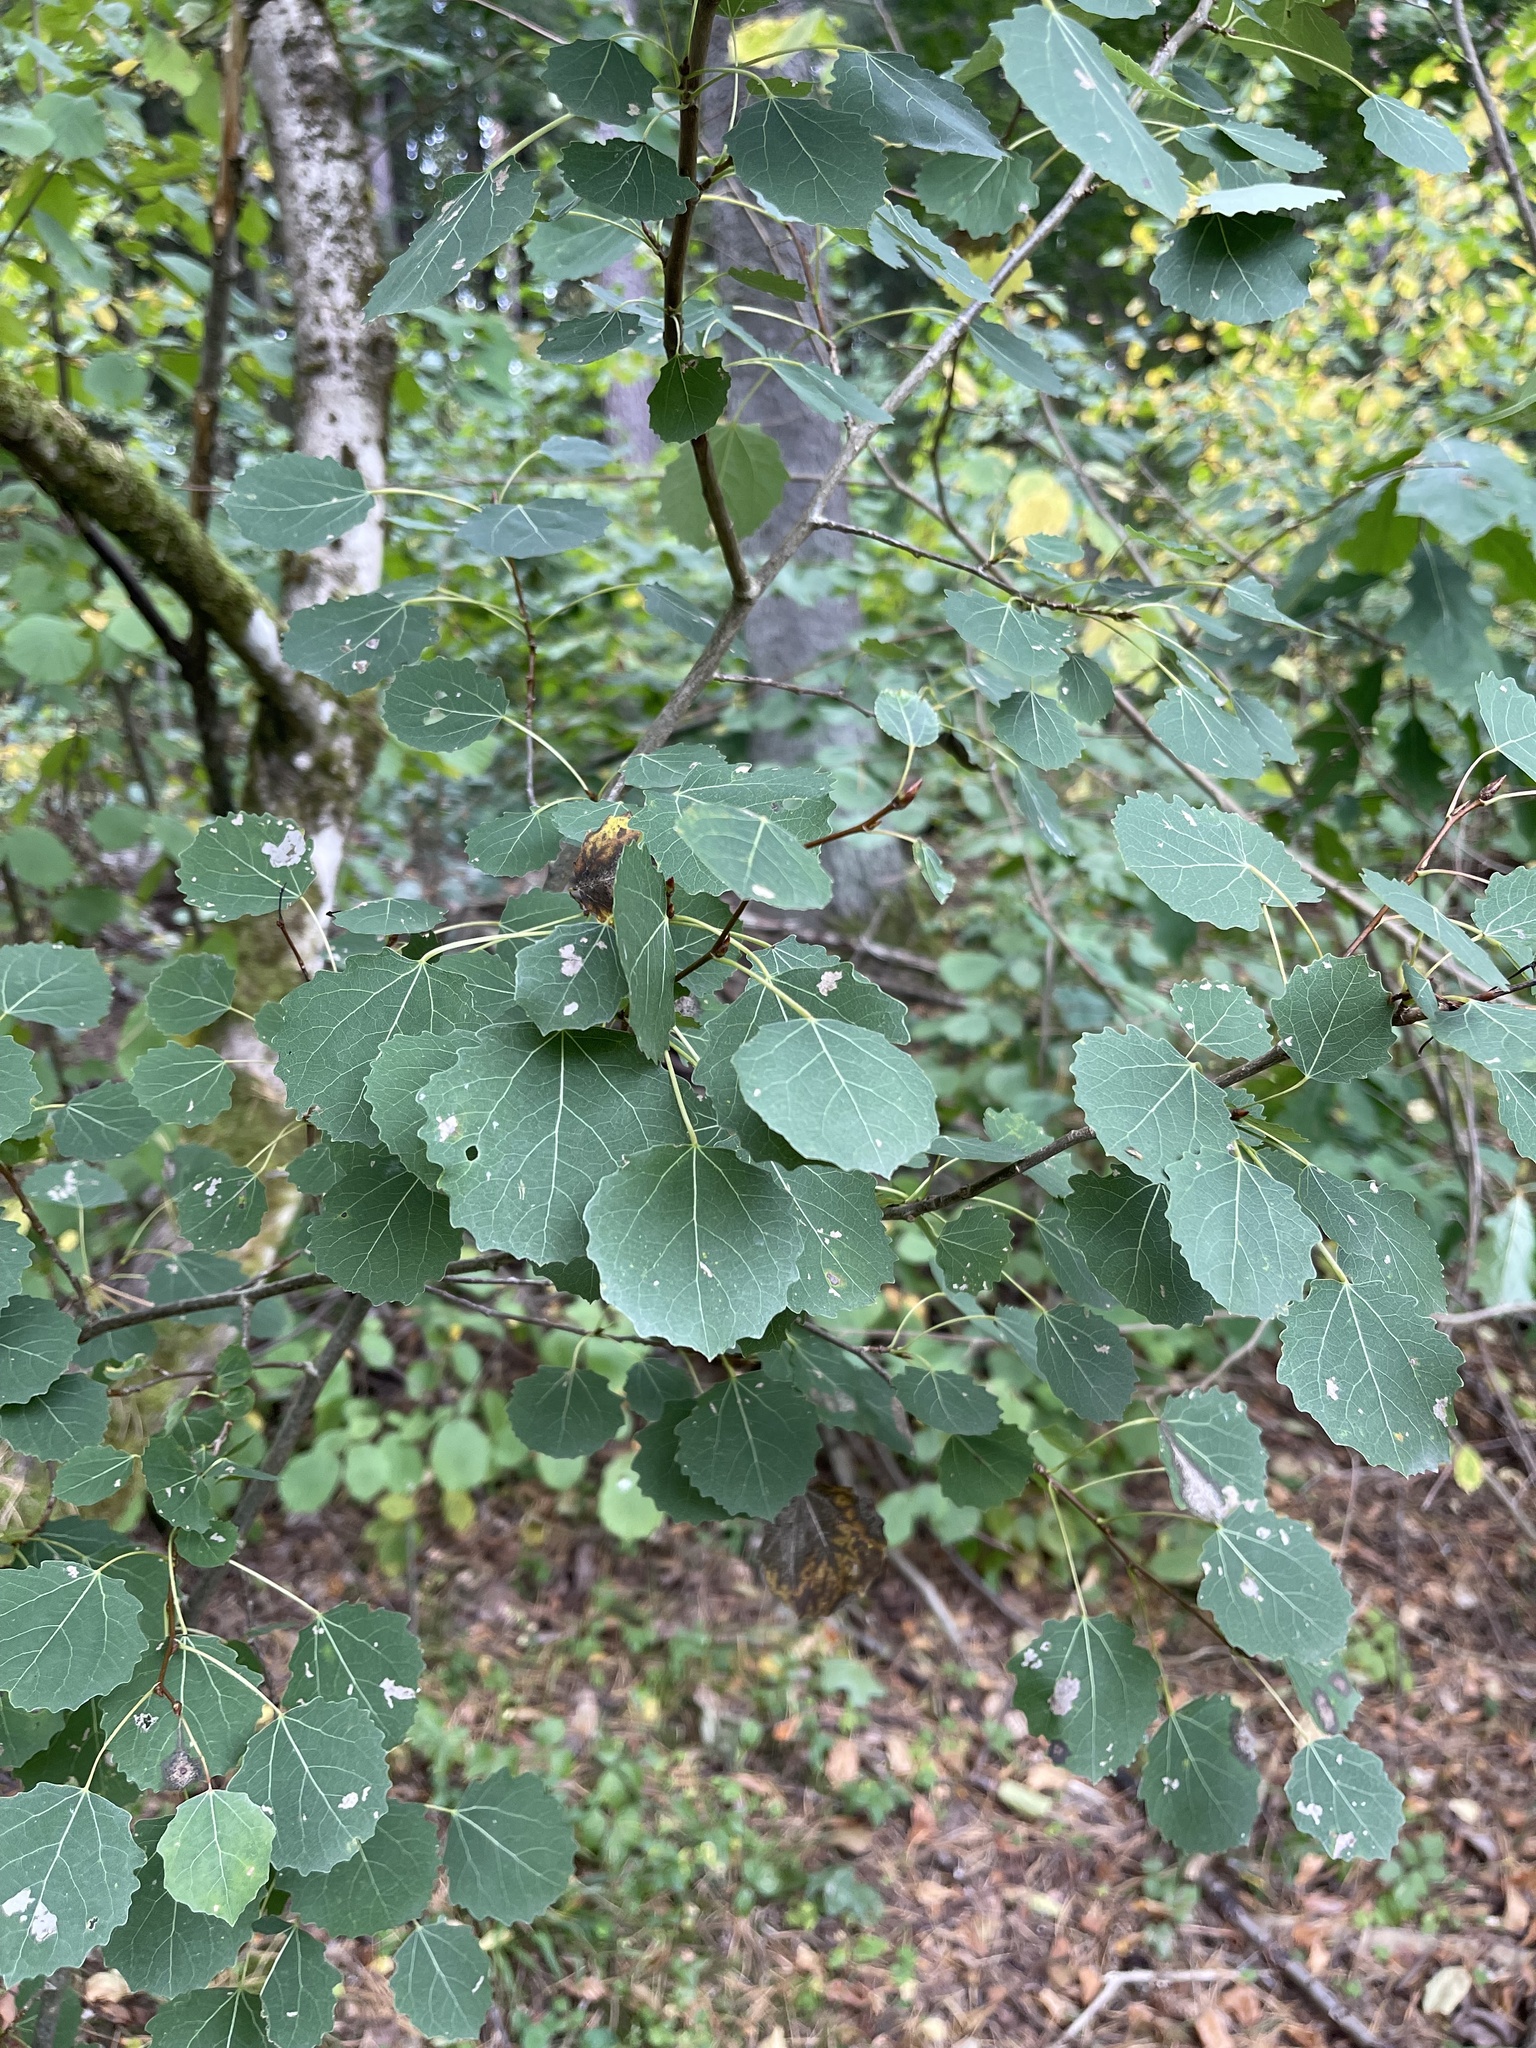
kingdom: Plantae
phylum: Tracheophyta
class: Magnoliopsida
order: Malpighiales
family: Salicaceae
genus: Populus
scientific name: Populus tremula
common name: European aspen
